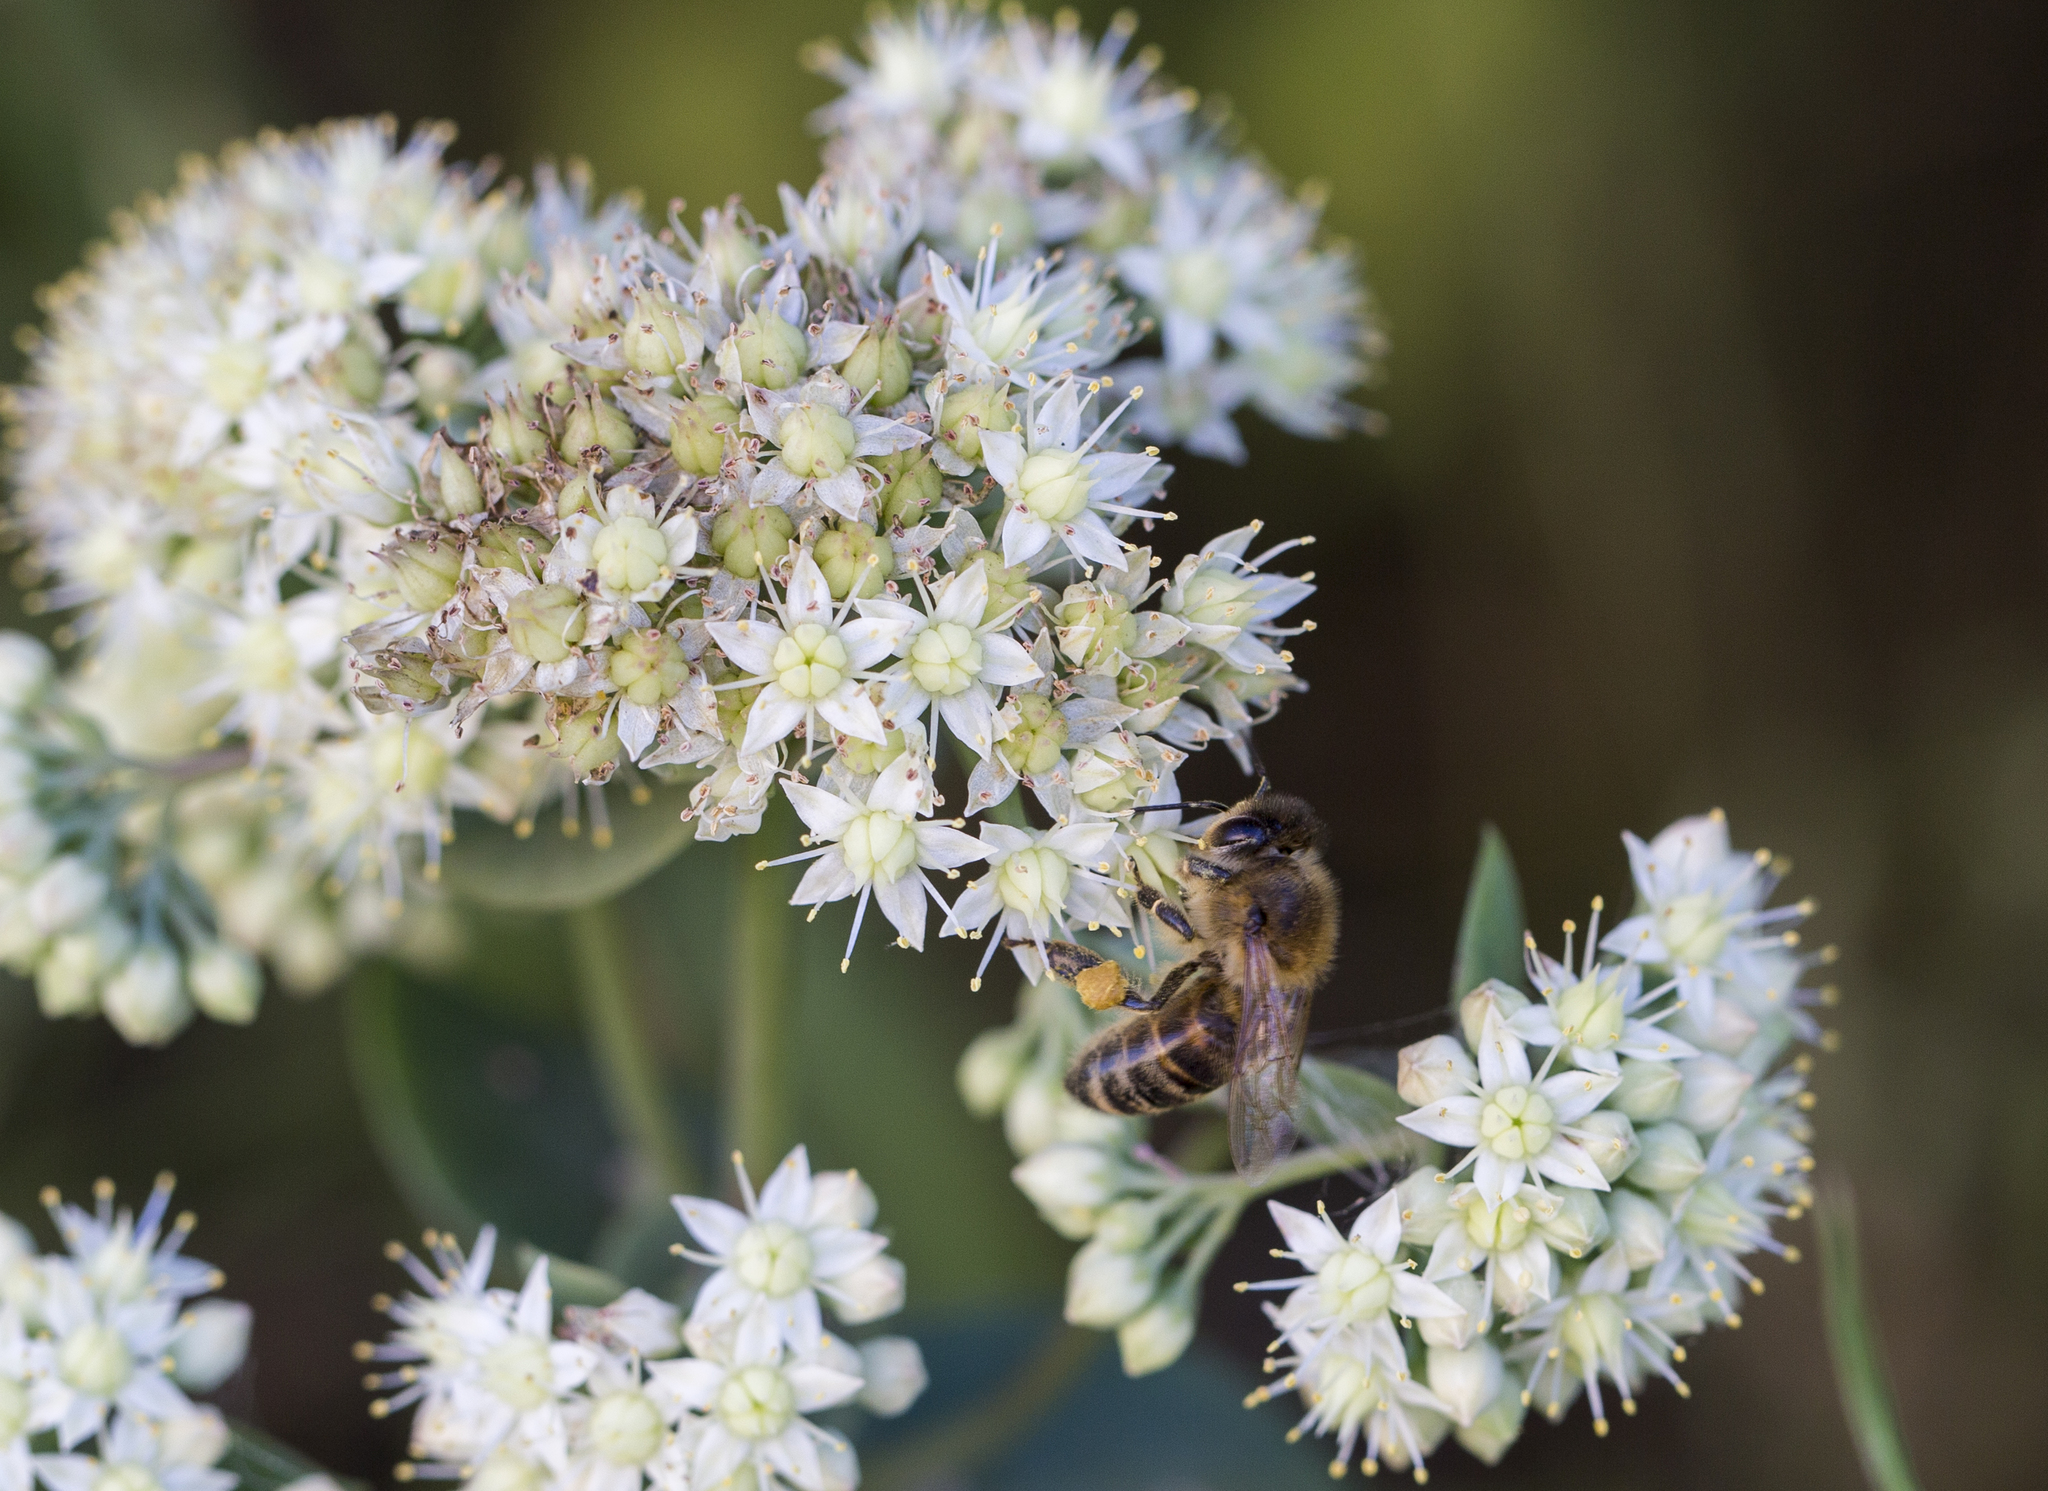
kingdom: Animalia
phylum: Arthropoda
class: Insecta
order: Hymenoptera
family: Apidae
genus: Apis
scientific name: Apis mellifera
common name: Honey bee
